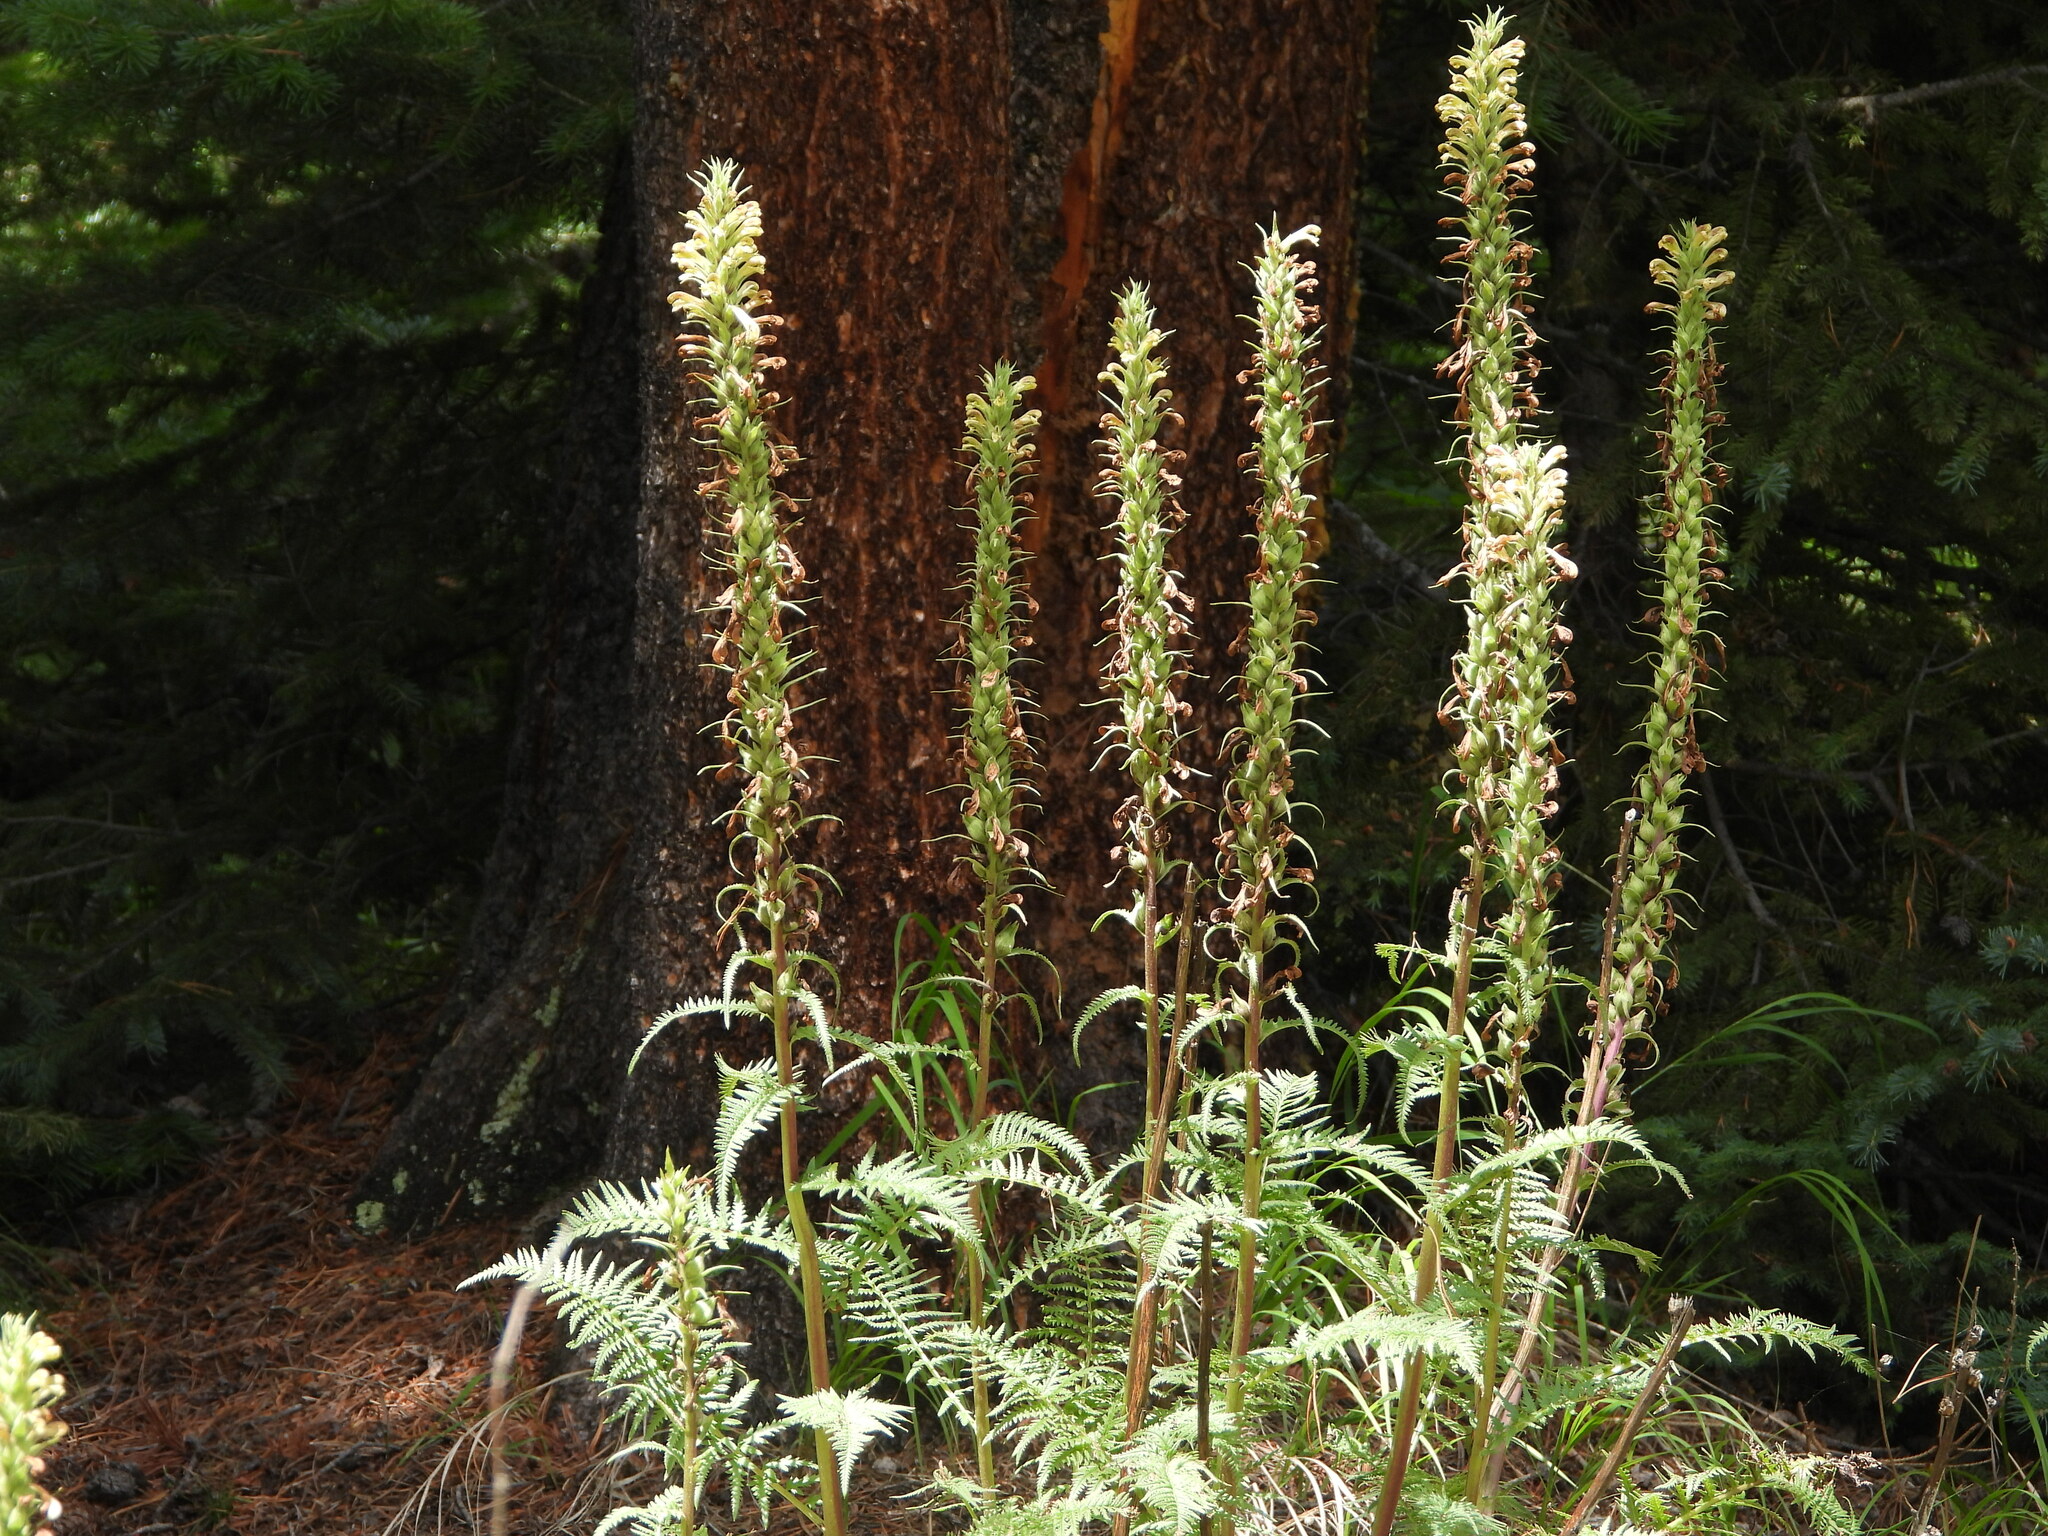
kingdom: Plantae
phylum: Tracheophyta
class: Magnoliopsida
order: Lamiales
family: Orobanchaceae
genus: Pedicularis
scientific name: Pedicularis procera
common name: Gray's lousewort
